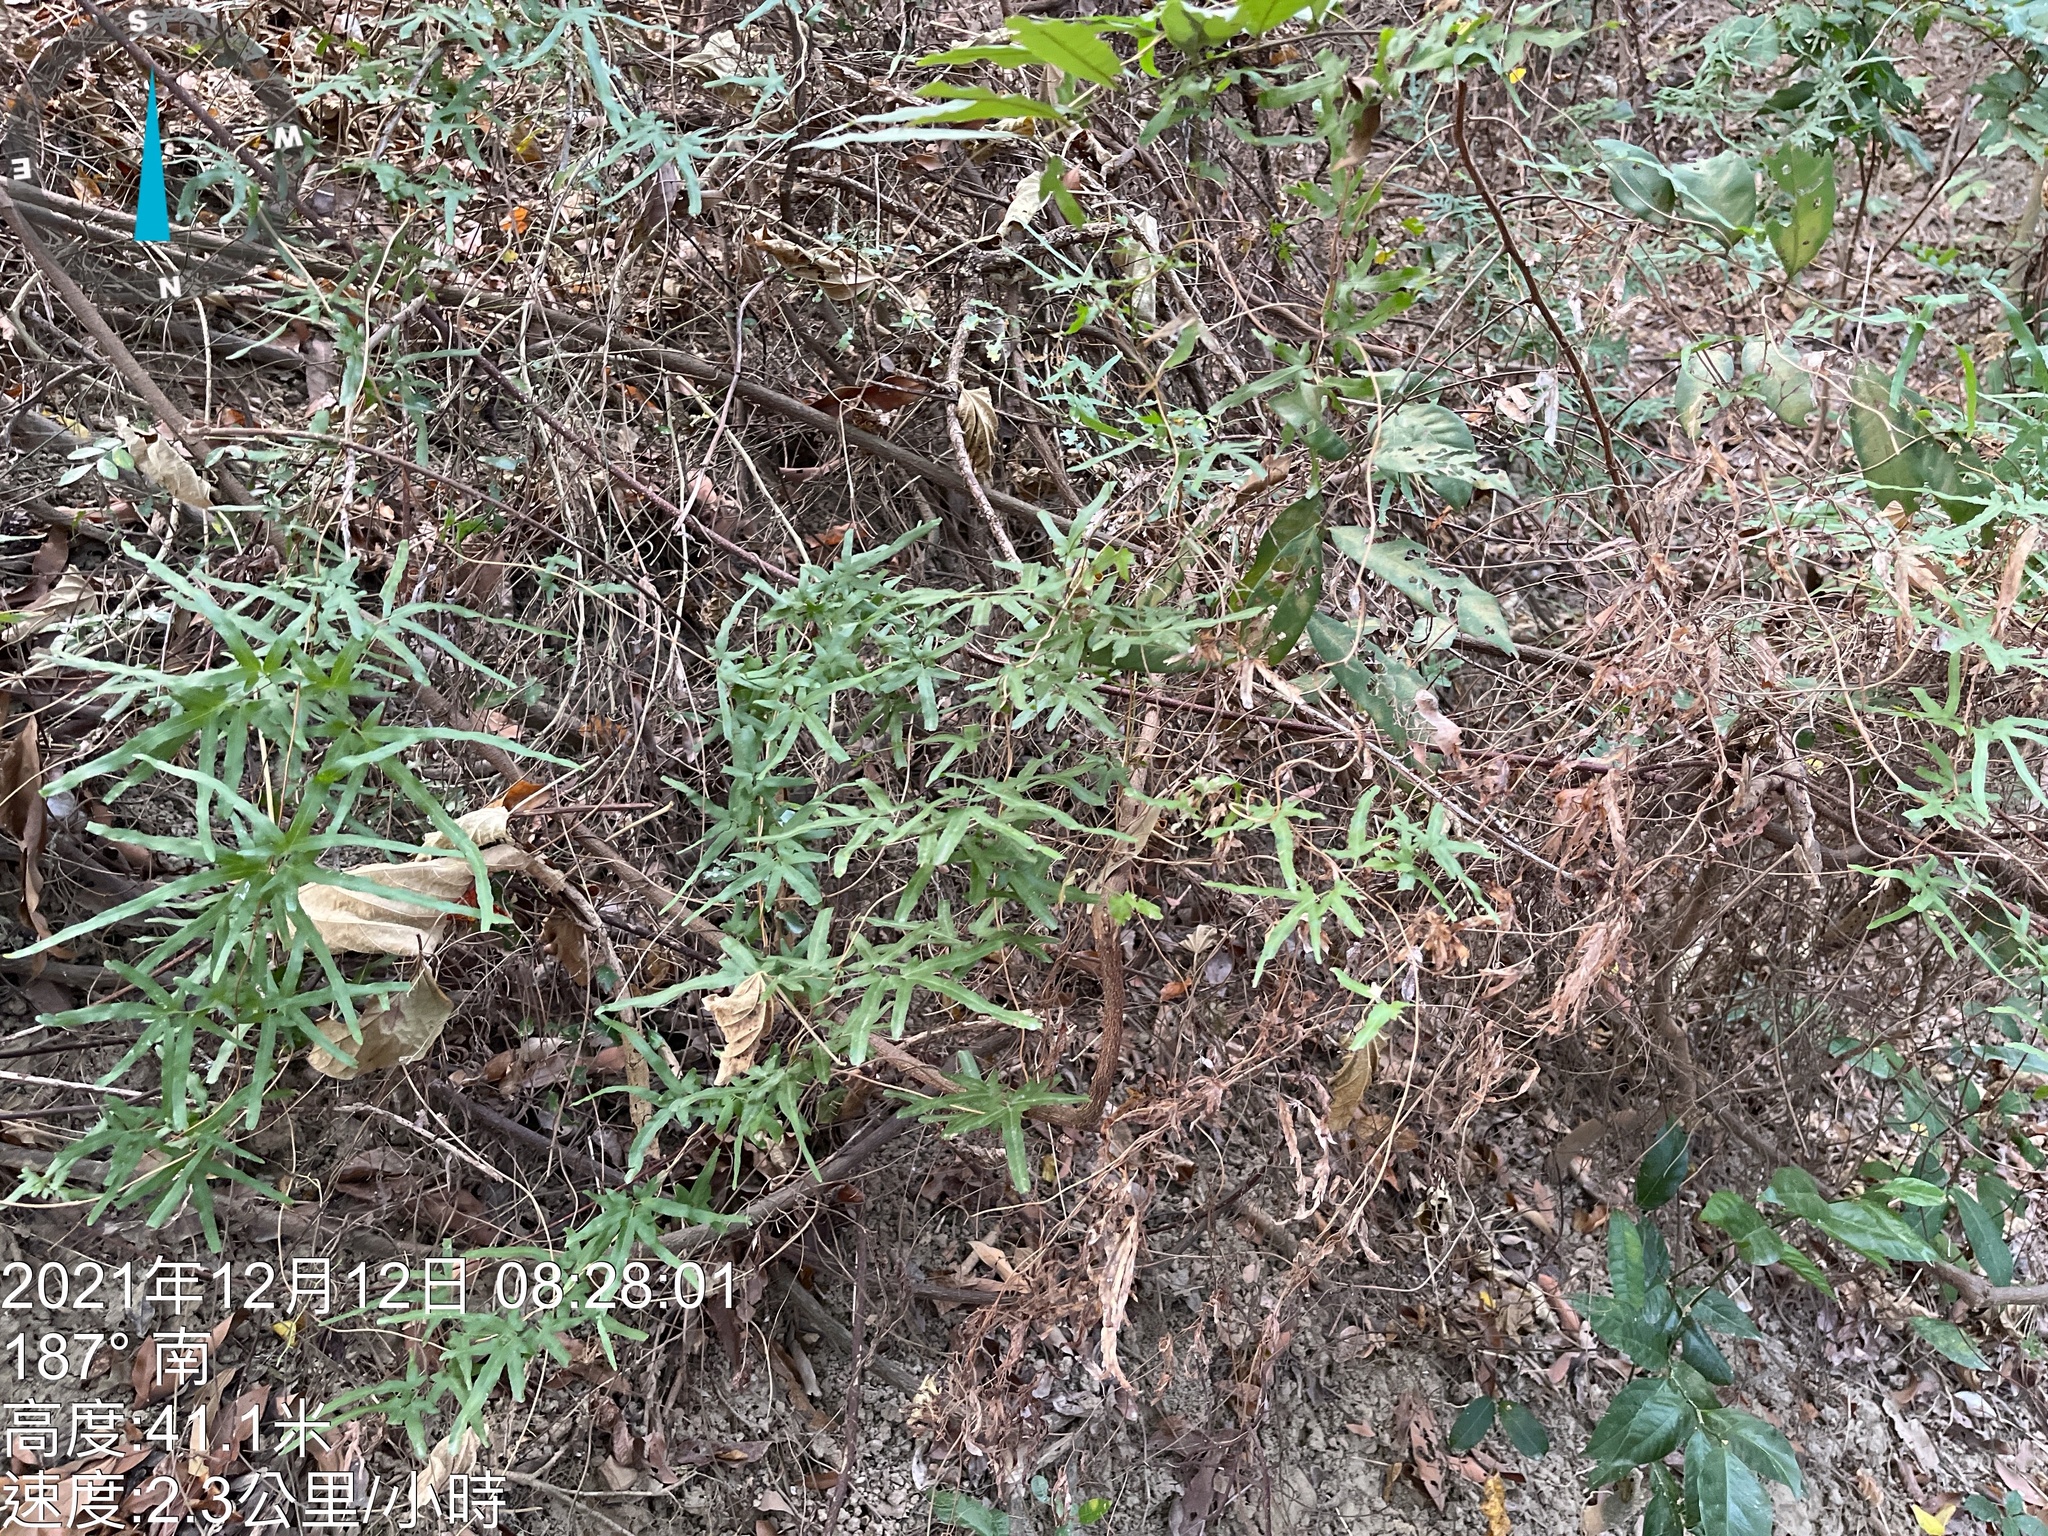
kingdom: Plantae
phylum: Tracheophyta
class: Polypodiopsida
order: Schizaeales
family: Lygodiaceae
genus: Lygodium
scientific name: Lygodium japonicum
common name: Japanese climbing fern
